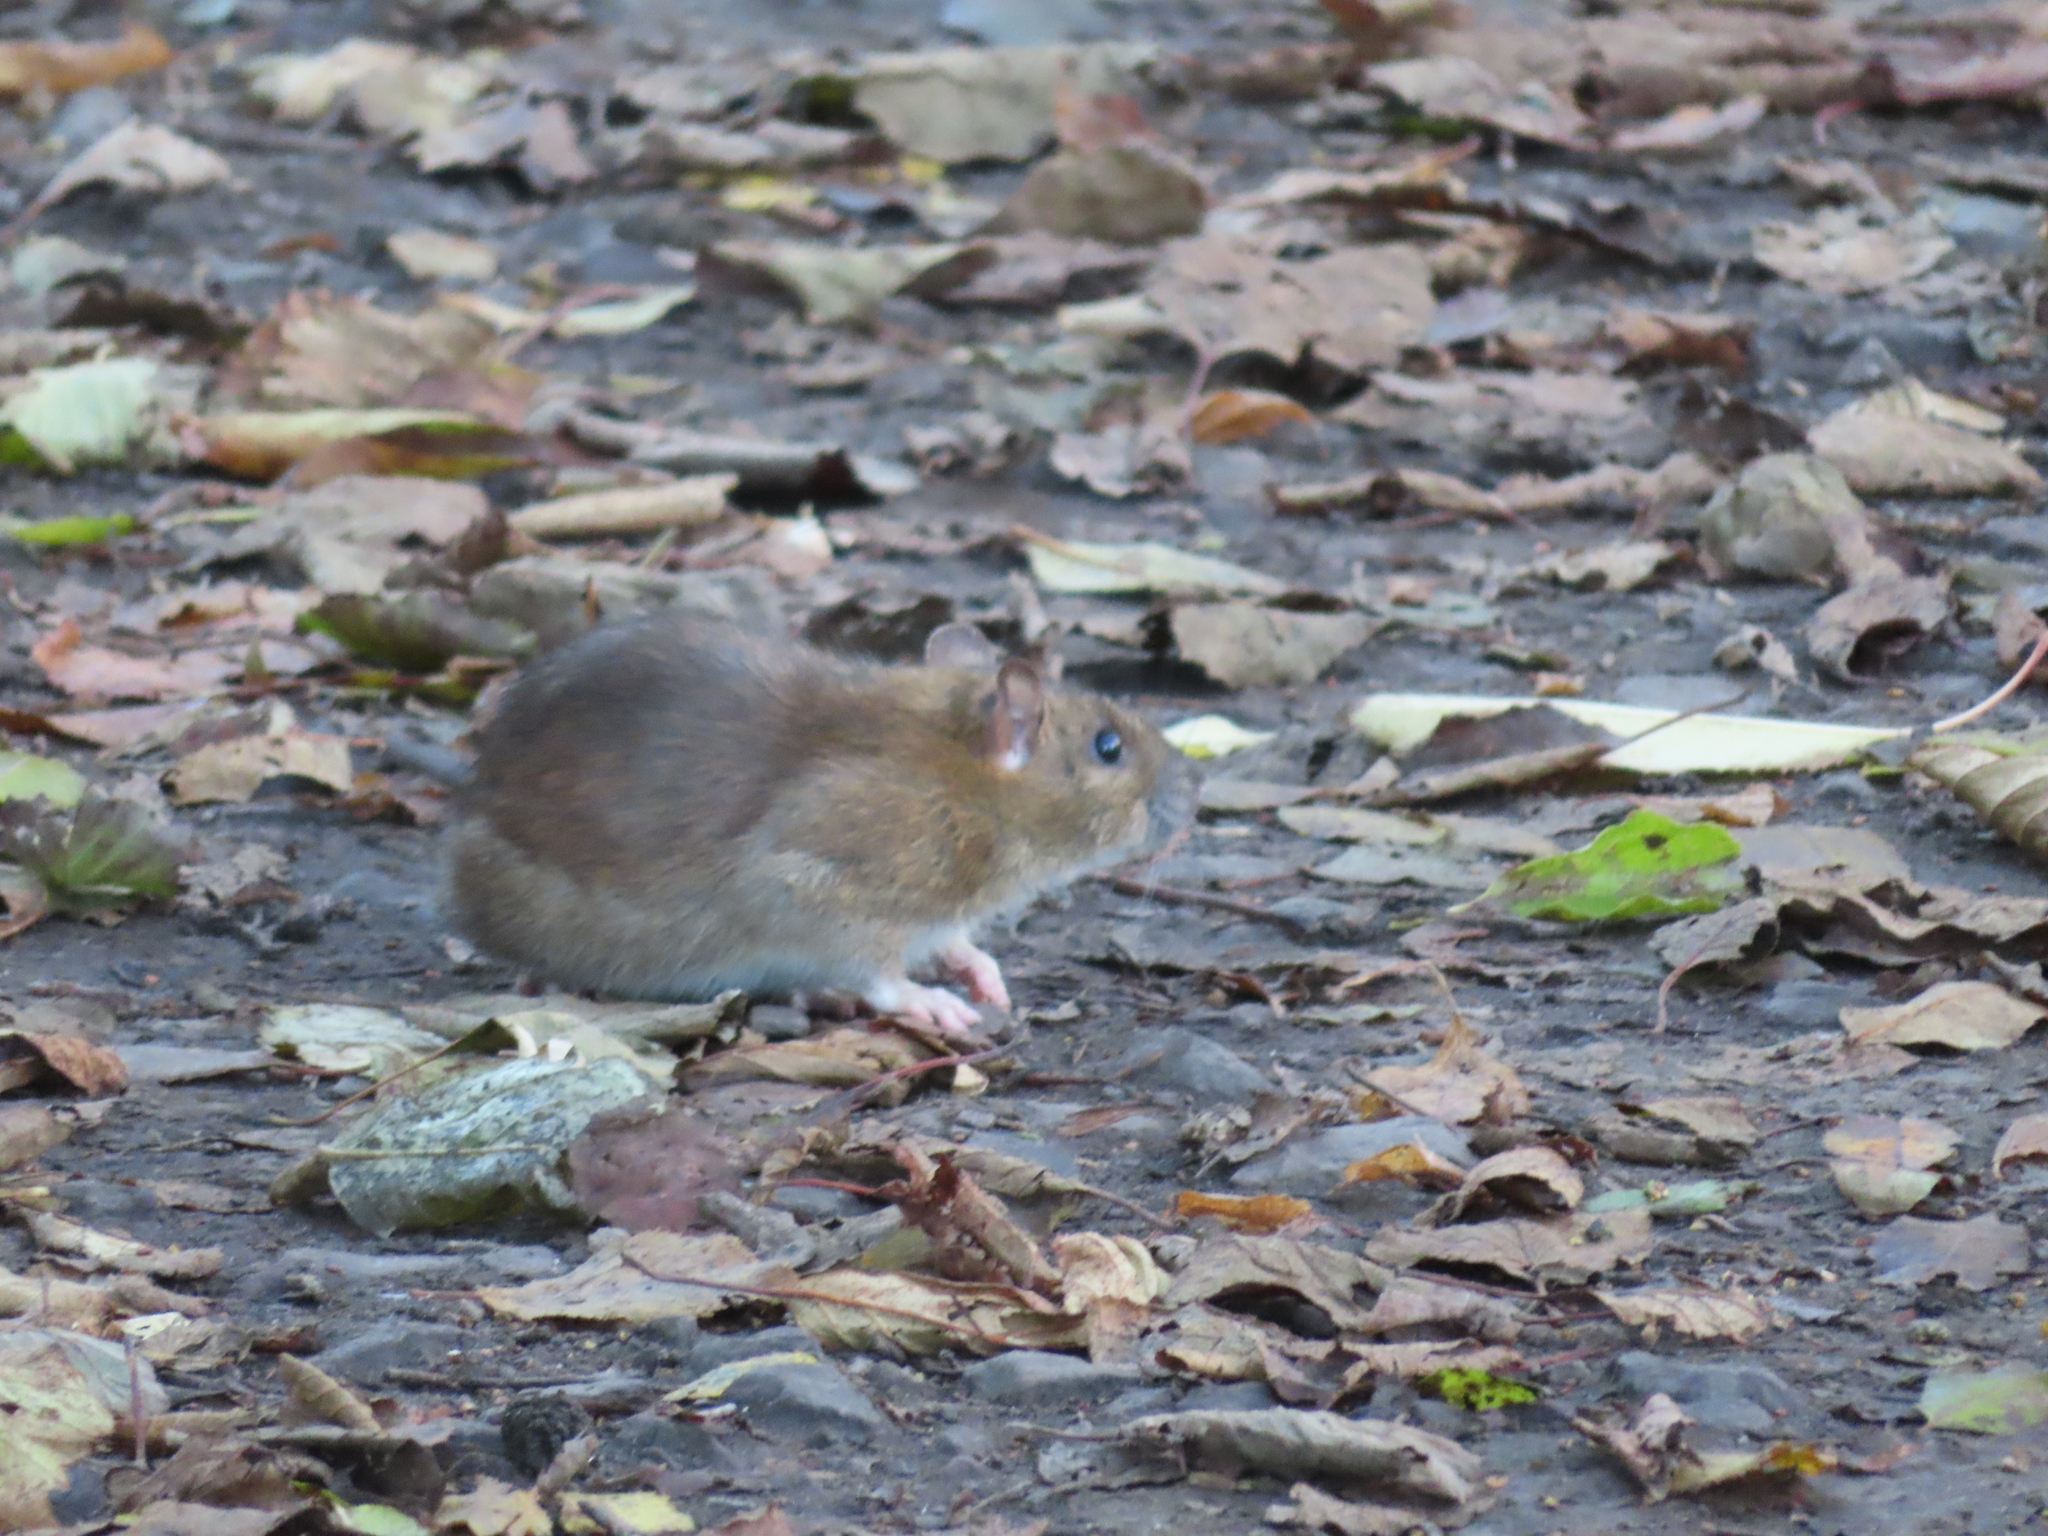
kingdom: Animalia
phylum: Chordata
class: Mammalia
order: Rodentia
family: Muridae
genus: Rattus
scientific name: Rattus norvegicus
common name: Brown rat
